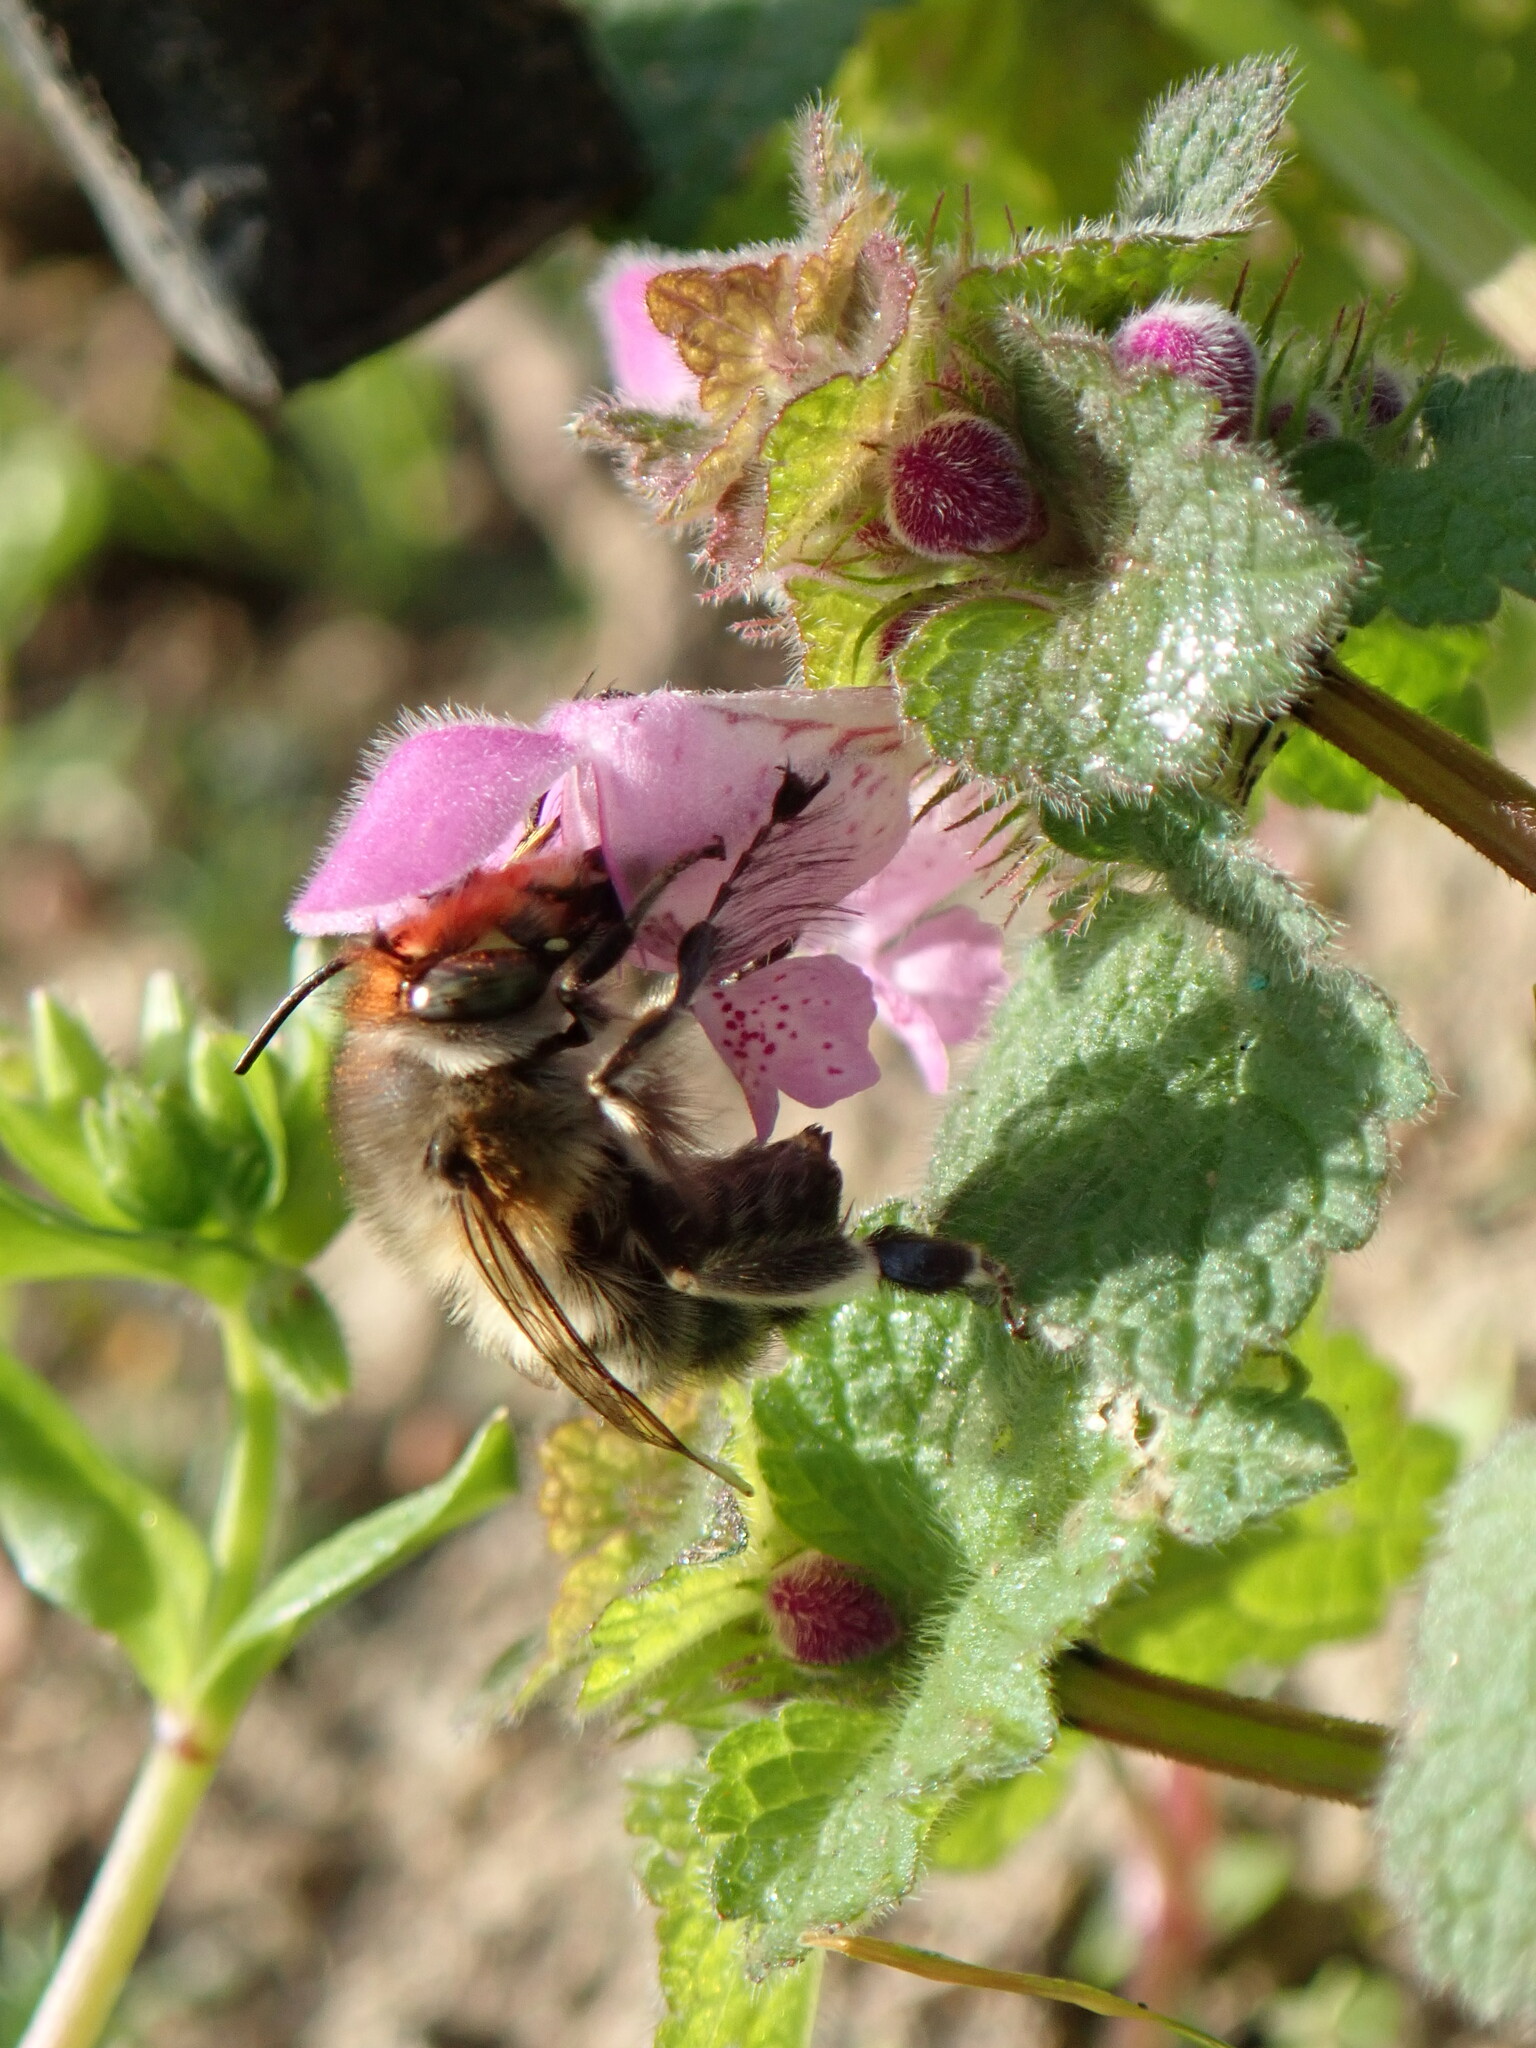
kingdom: Animalia
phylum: Arthropoda
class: Insecta
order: Hymenoptera
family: Apidae
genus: Anthophora
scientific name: Anthophora plumipes
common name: Hairy-footed flower bee
